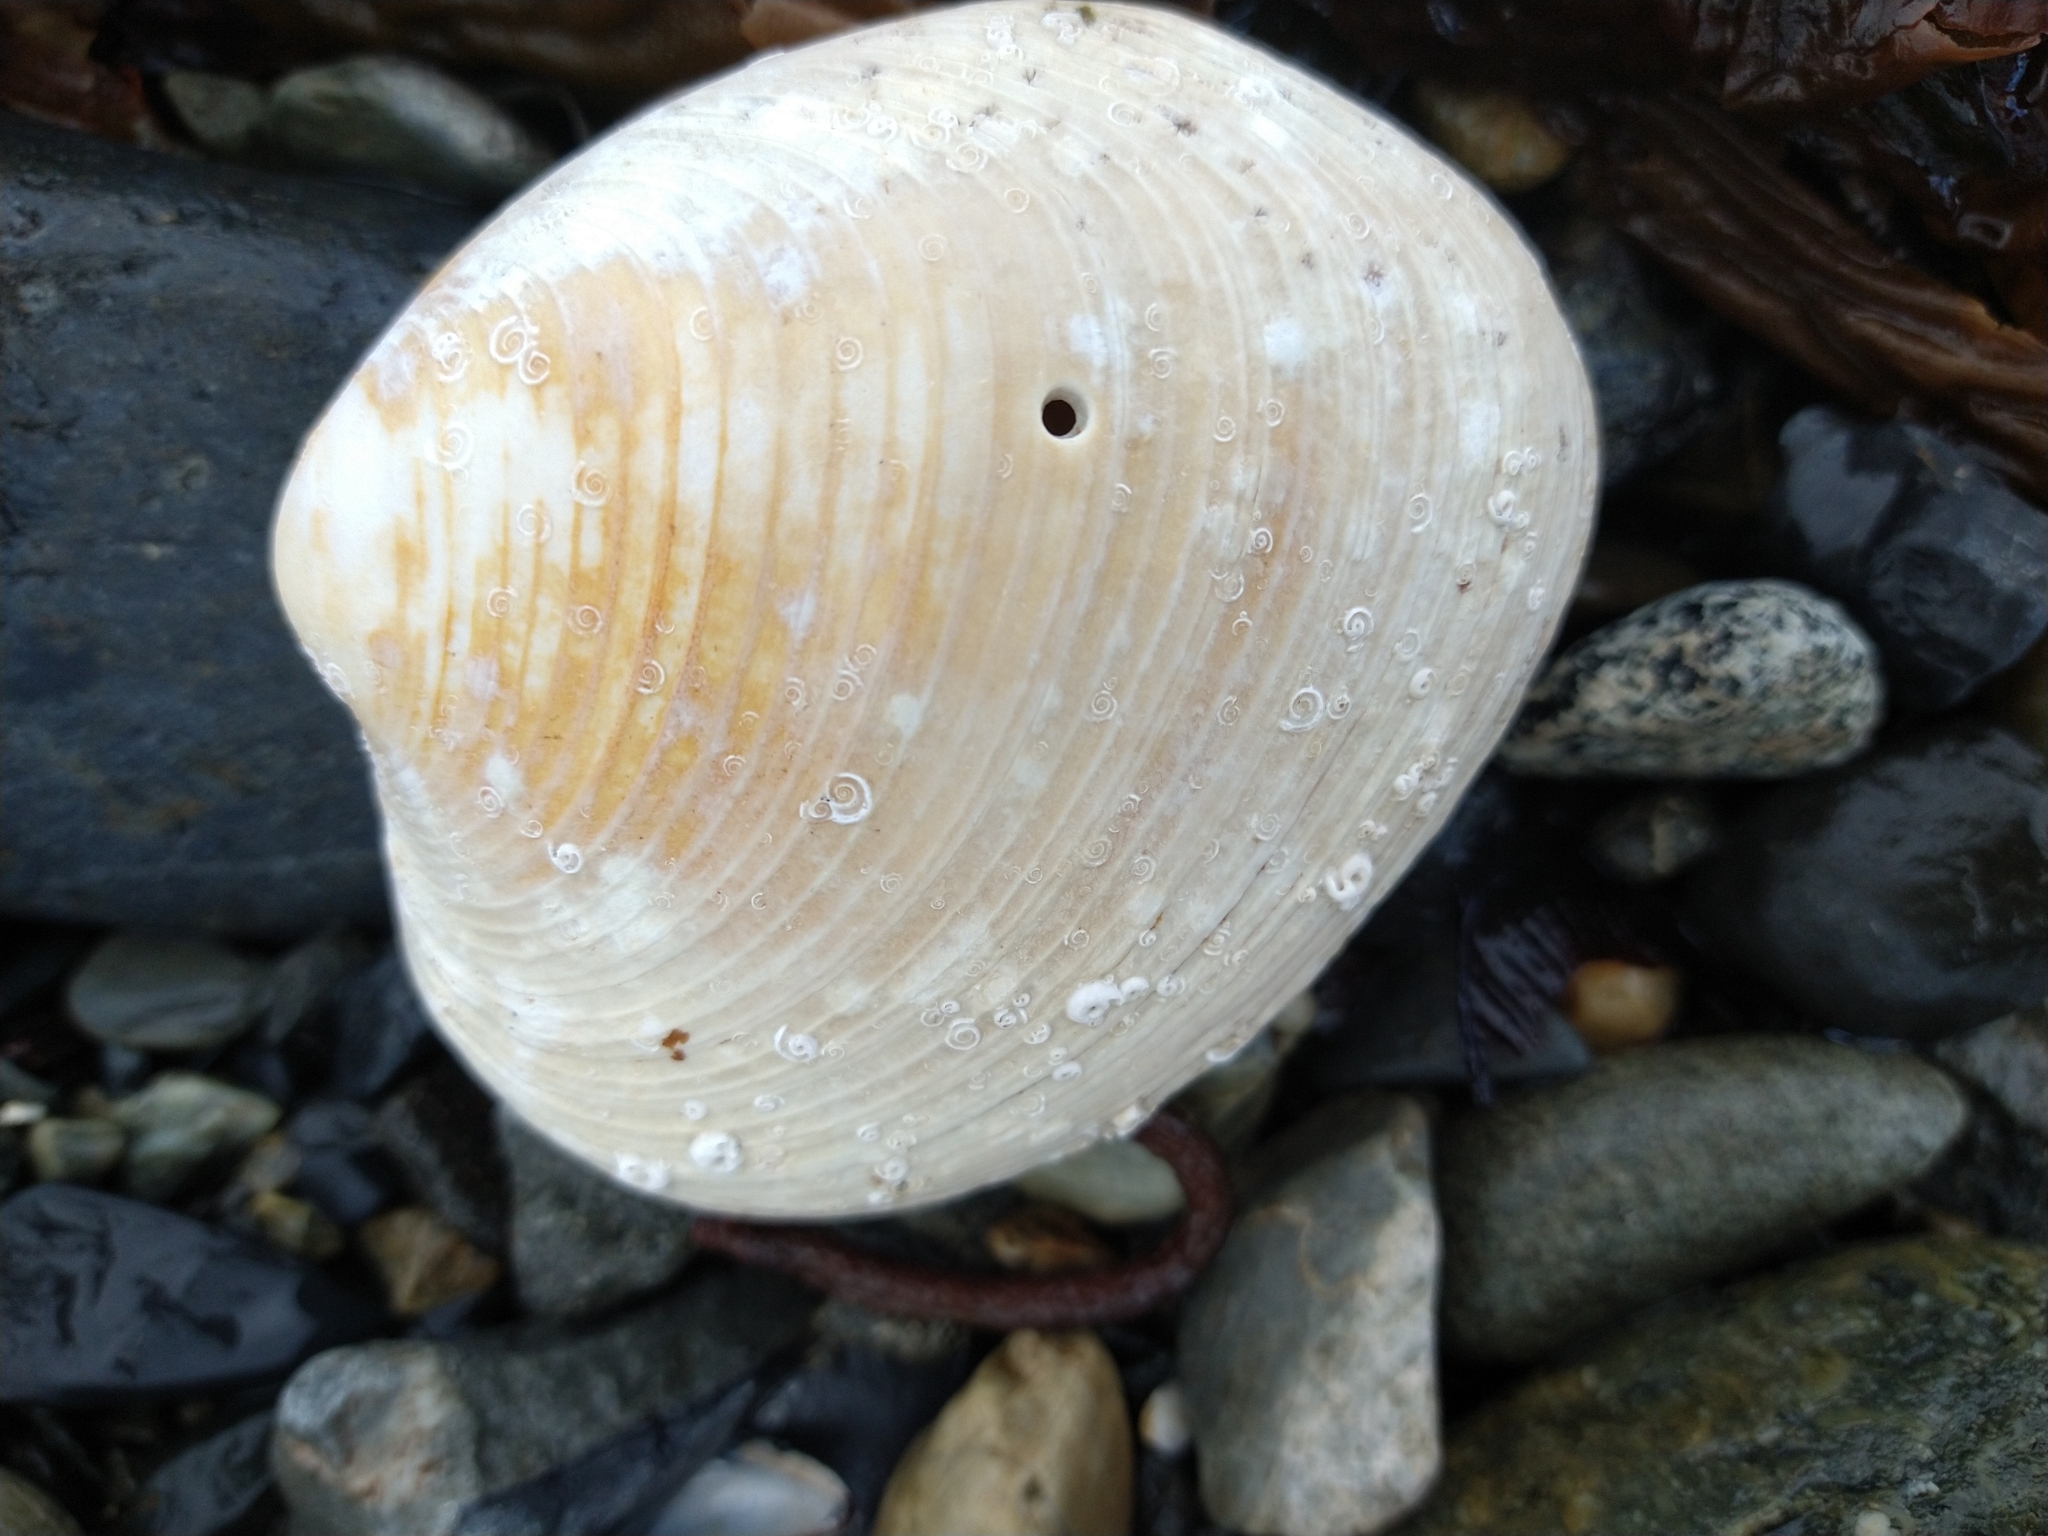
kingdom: Animalia
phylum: Mollusca
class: Bivalvia
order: Venerida
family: Veneridae
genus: Retrotapes
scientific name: Retrotapes exalbidus
